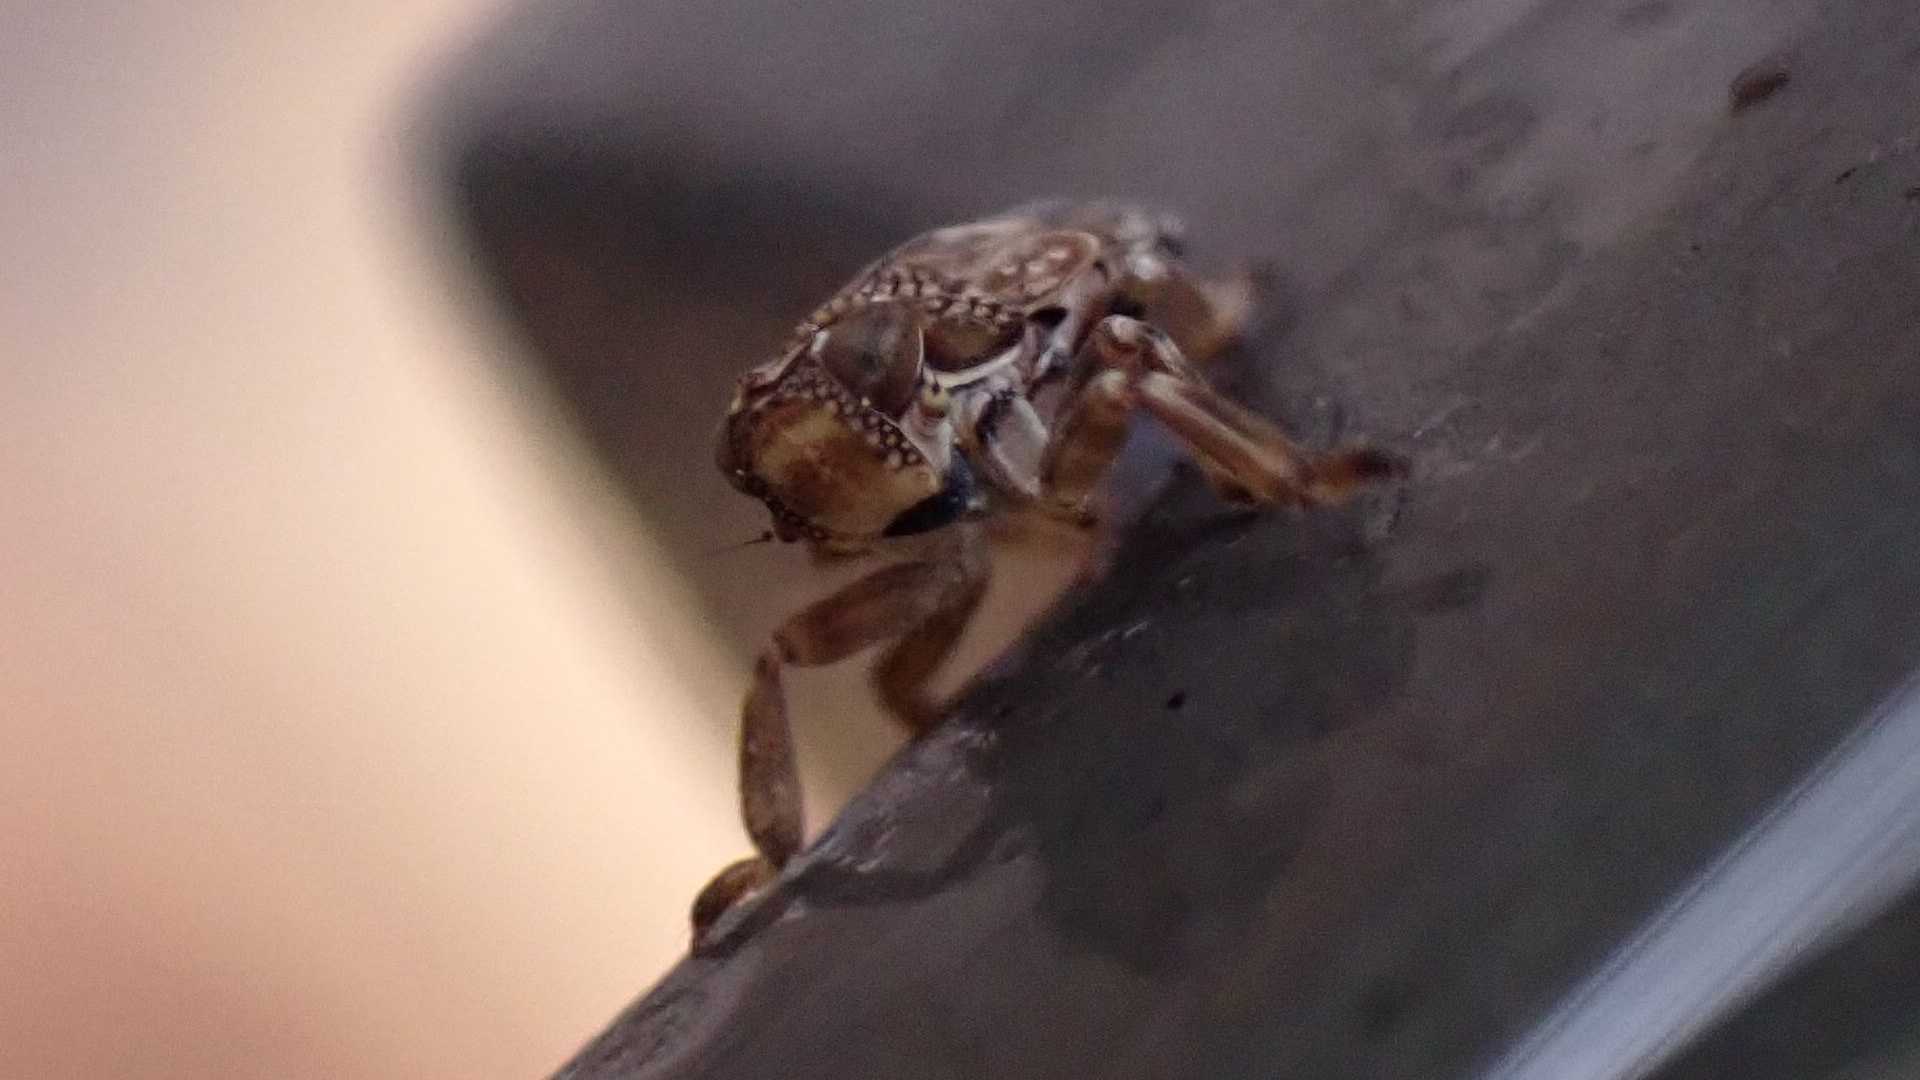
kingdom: Animalia
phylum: Arthropoda
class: Insecta
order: Hemiptera
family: Issidae
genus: Issus
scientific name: Issus coleoptratus
